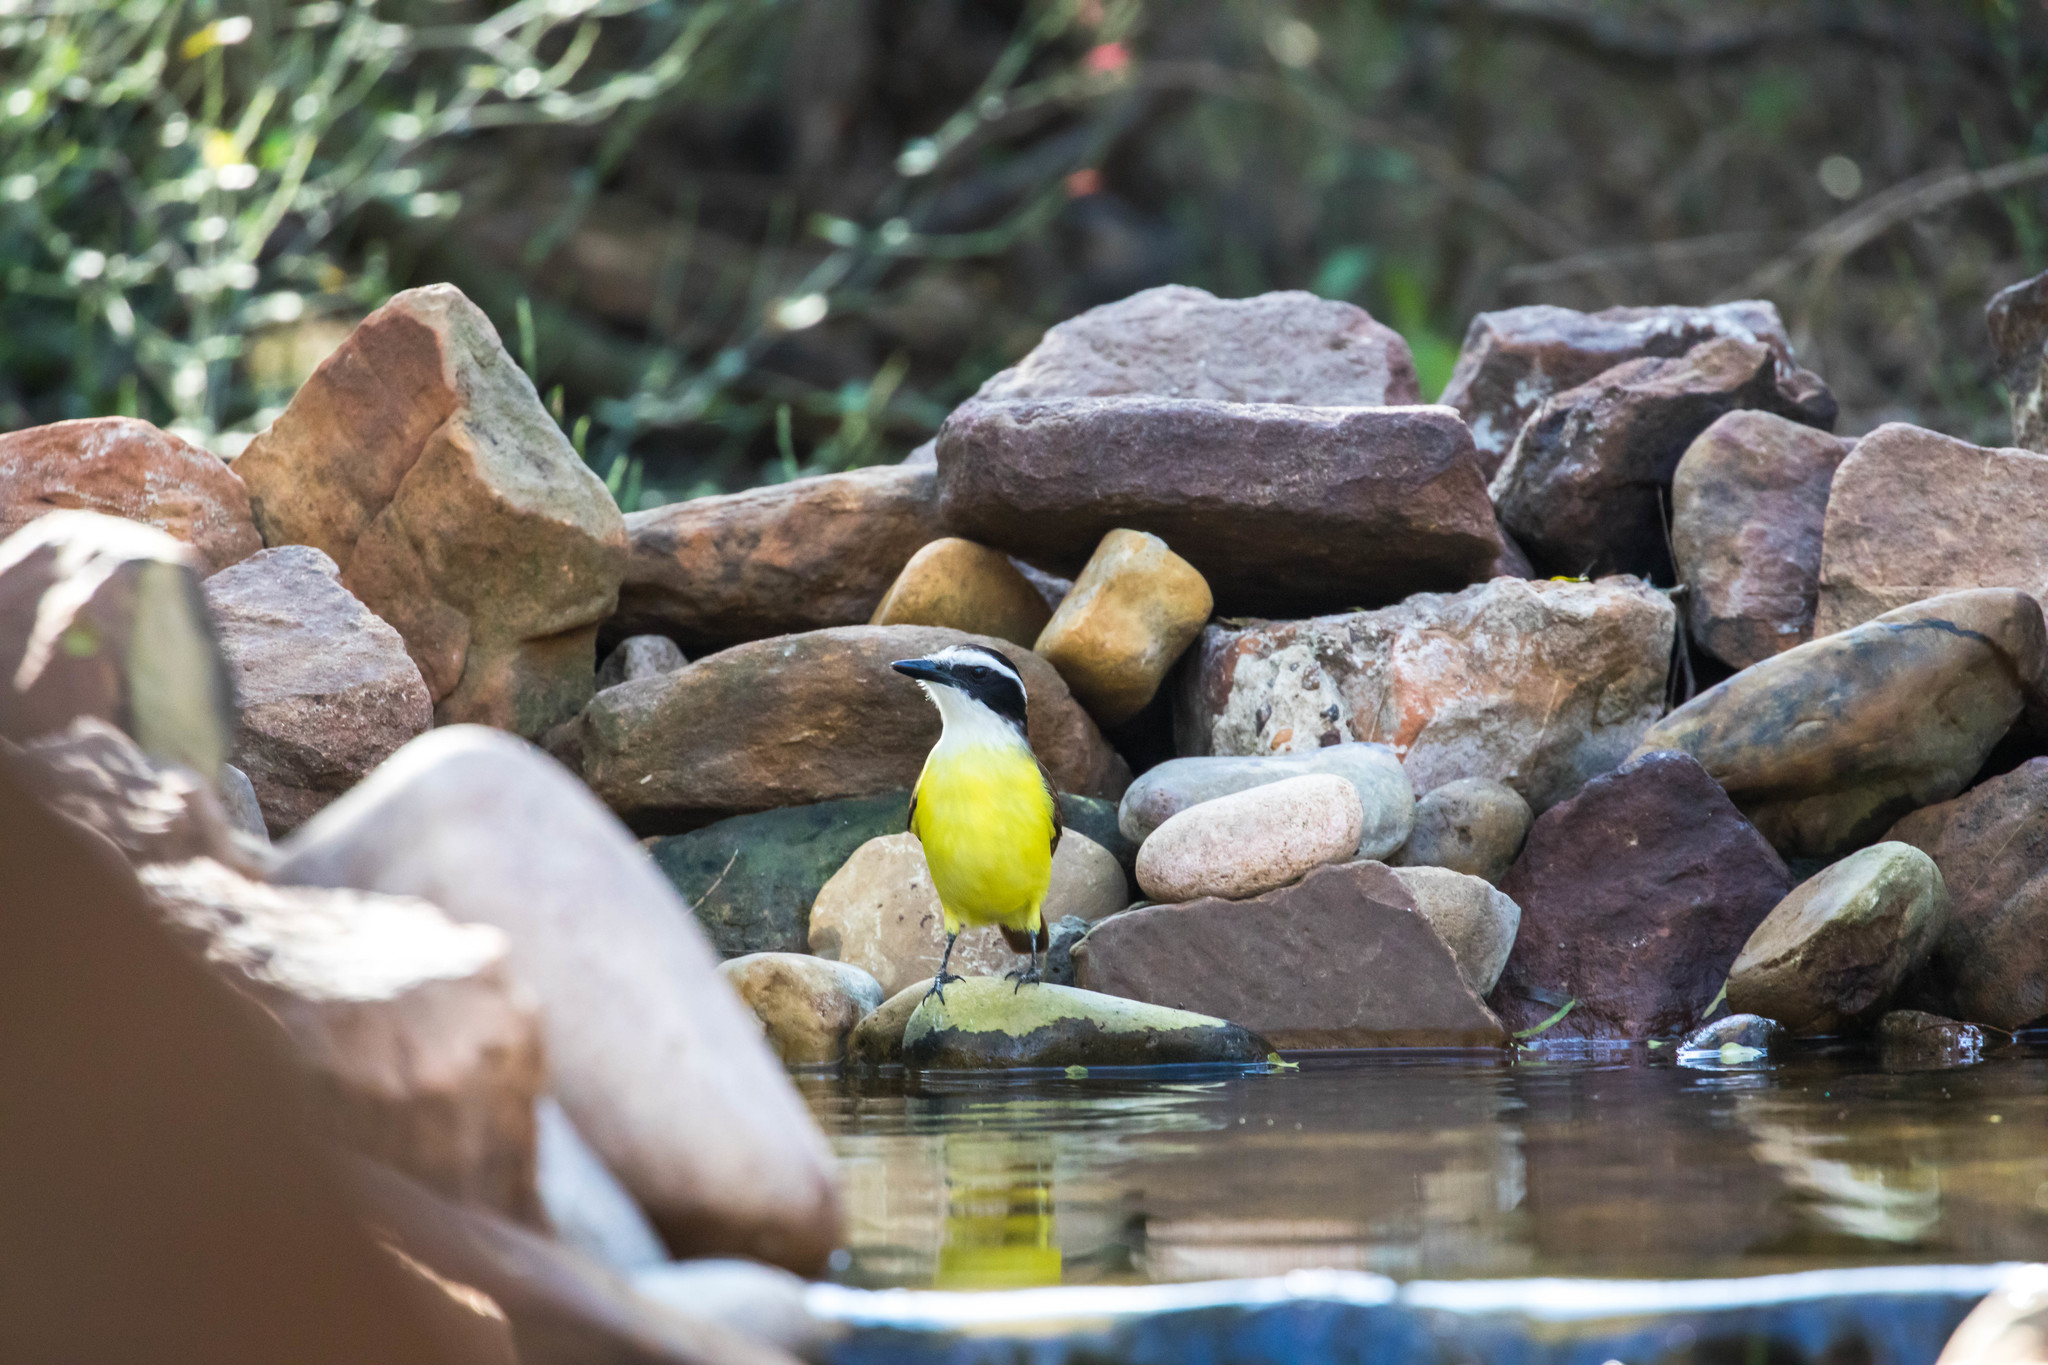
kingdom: Animalia
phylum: Chordata
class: Aves
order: Passeriformes
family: Tyrannidae
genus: Pitangus
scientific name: Pitangus sulphuratus
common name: Great kiskadee
